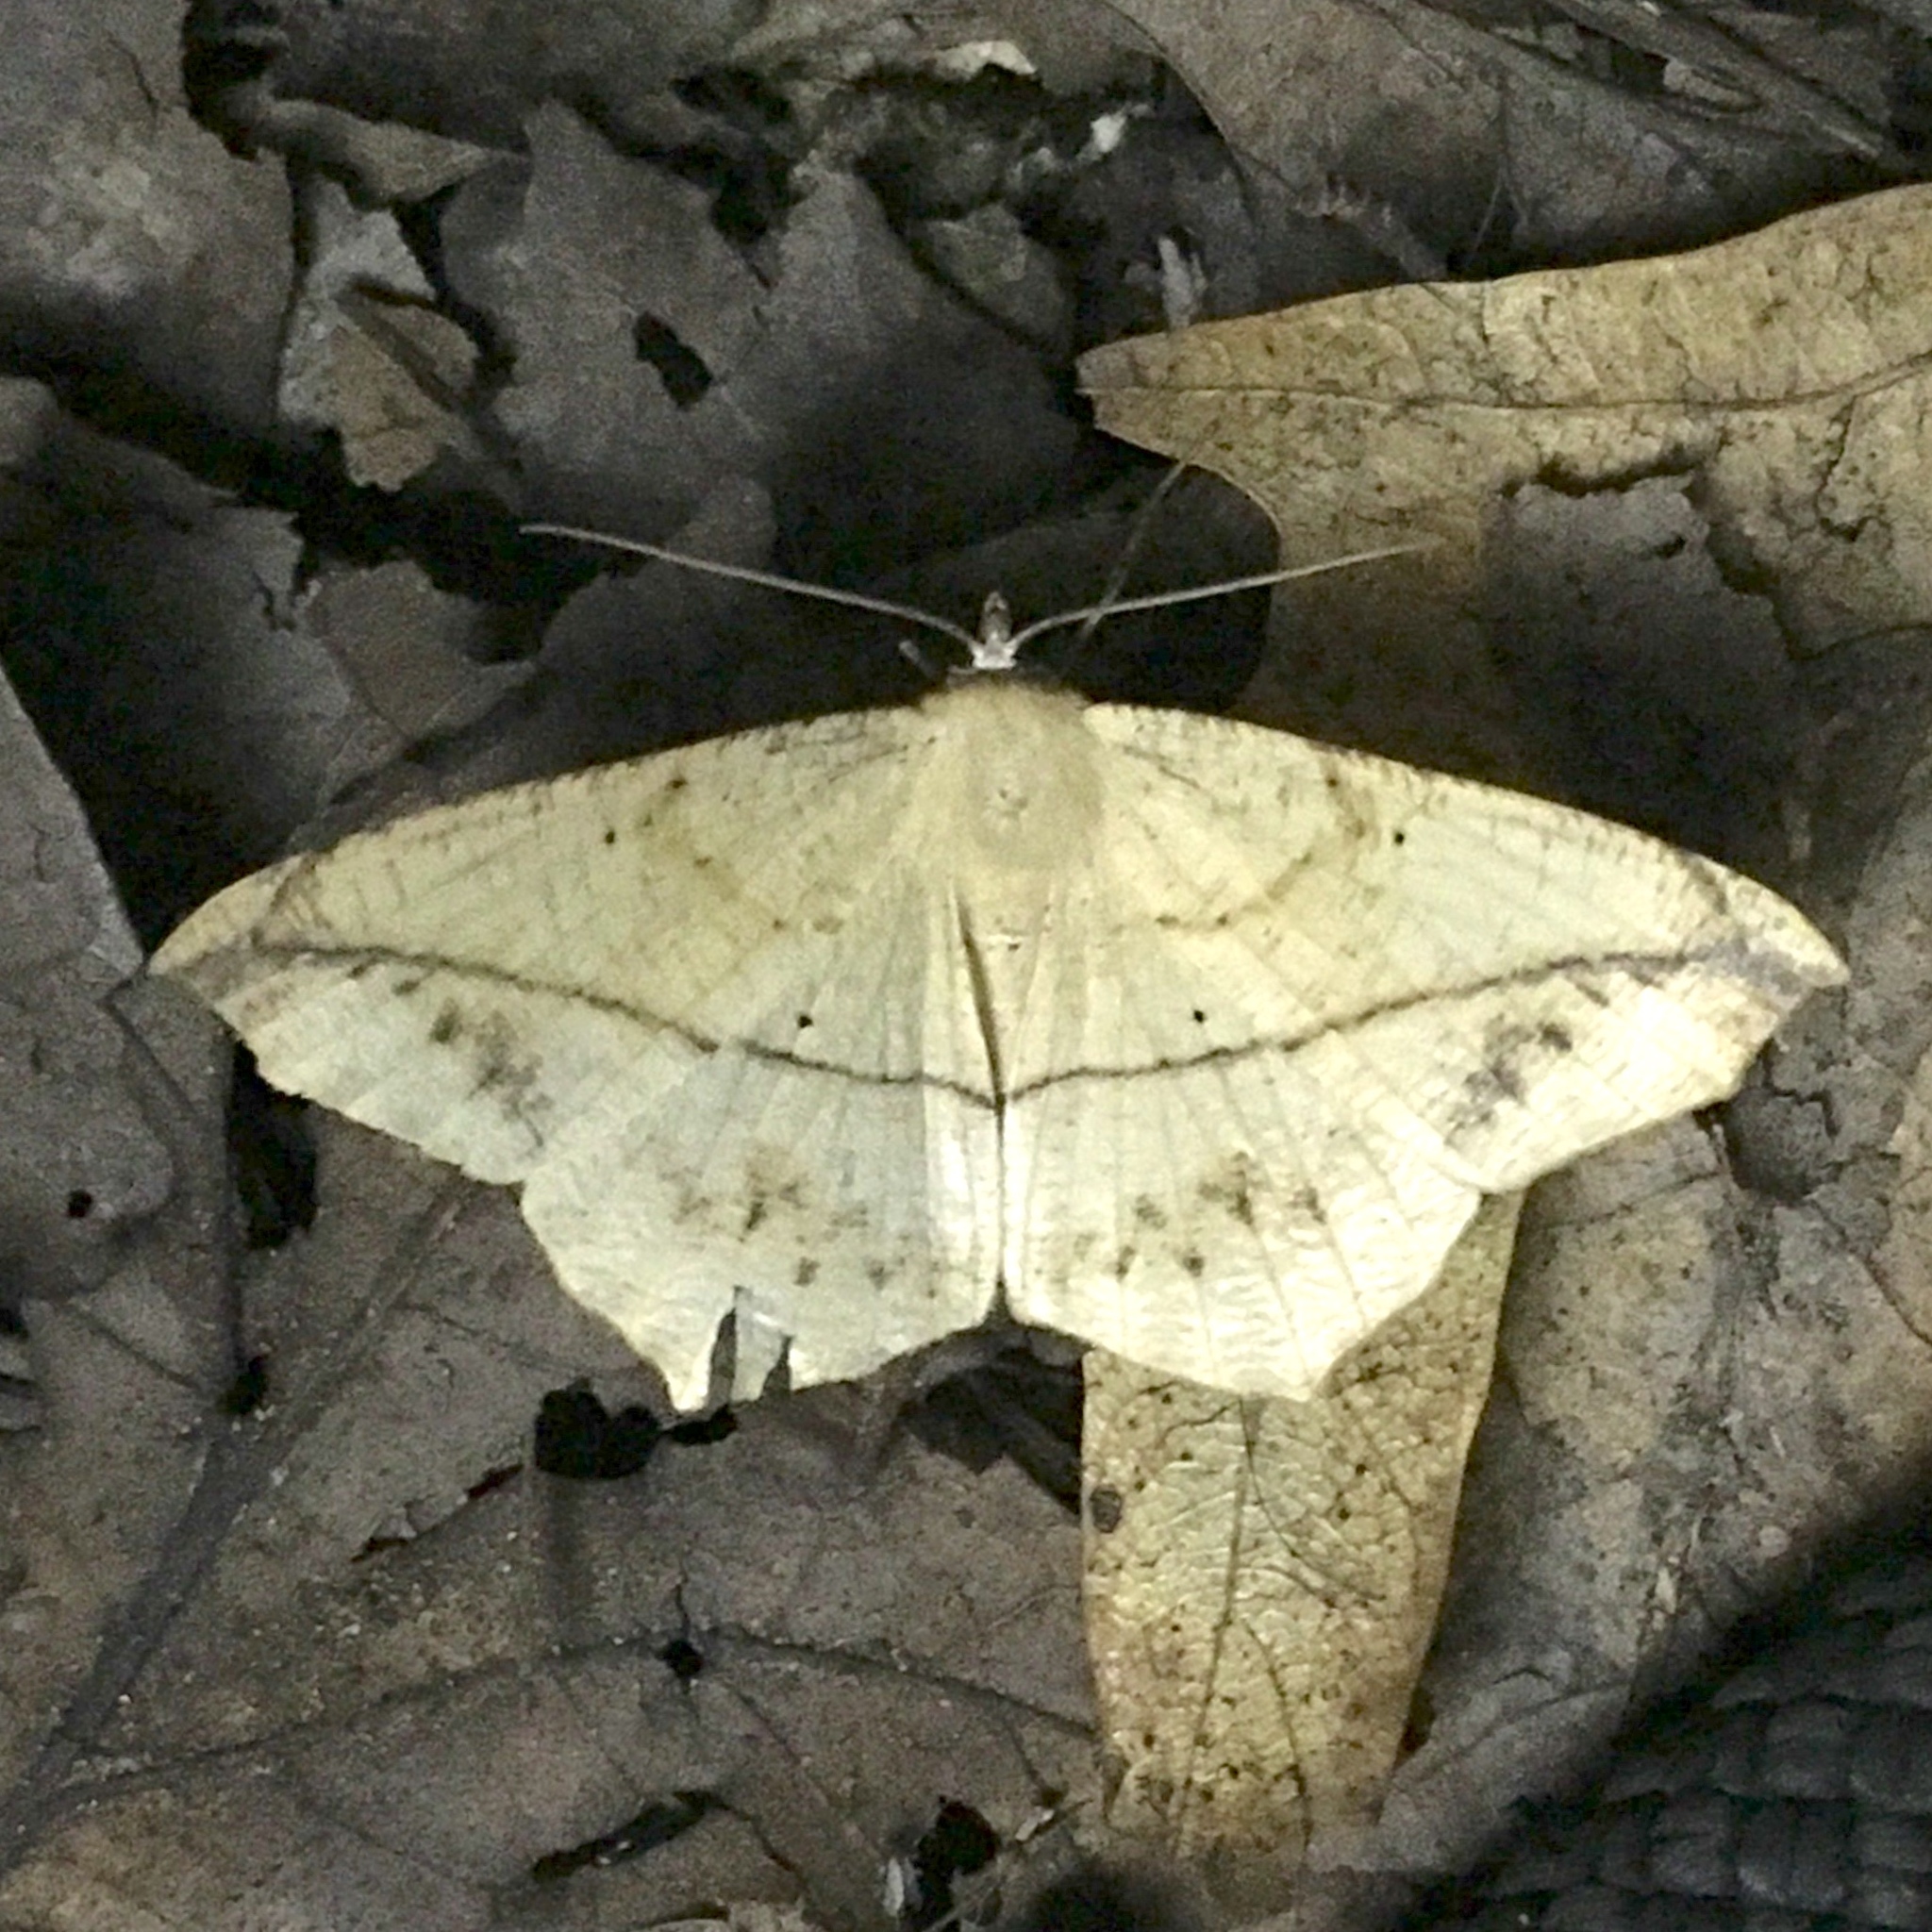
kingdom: Animalia
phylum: Arthropoda
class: Insecta
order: Lepidoptera
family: Geometridae
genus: Prochoerodes
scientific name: Prochoerodes lineola
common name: Large maple spanworm
